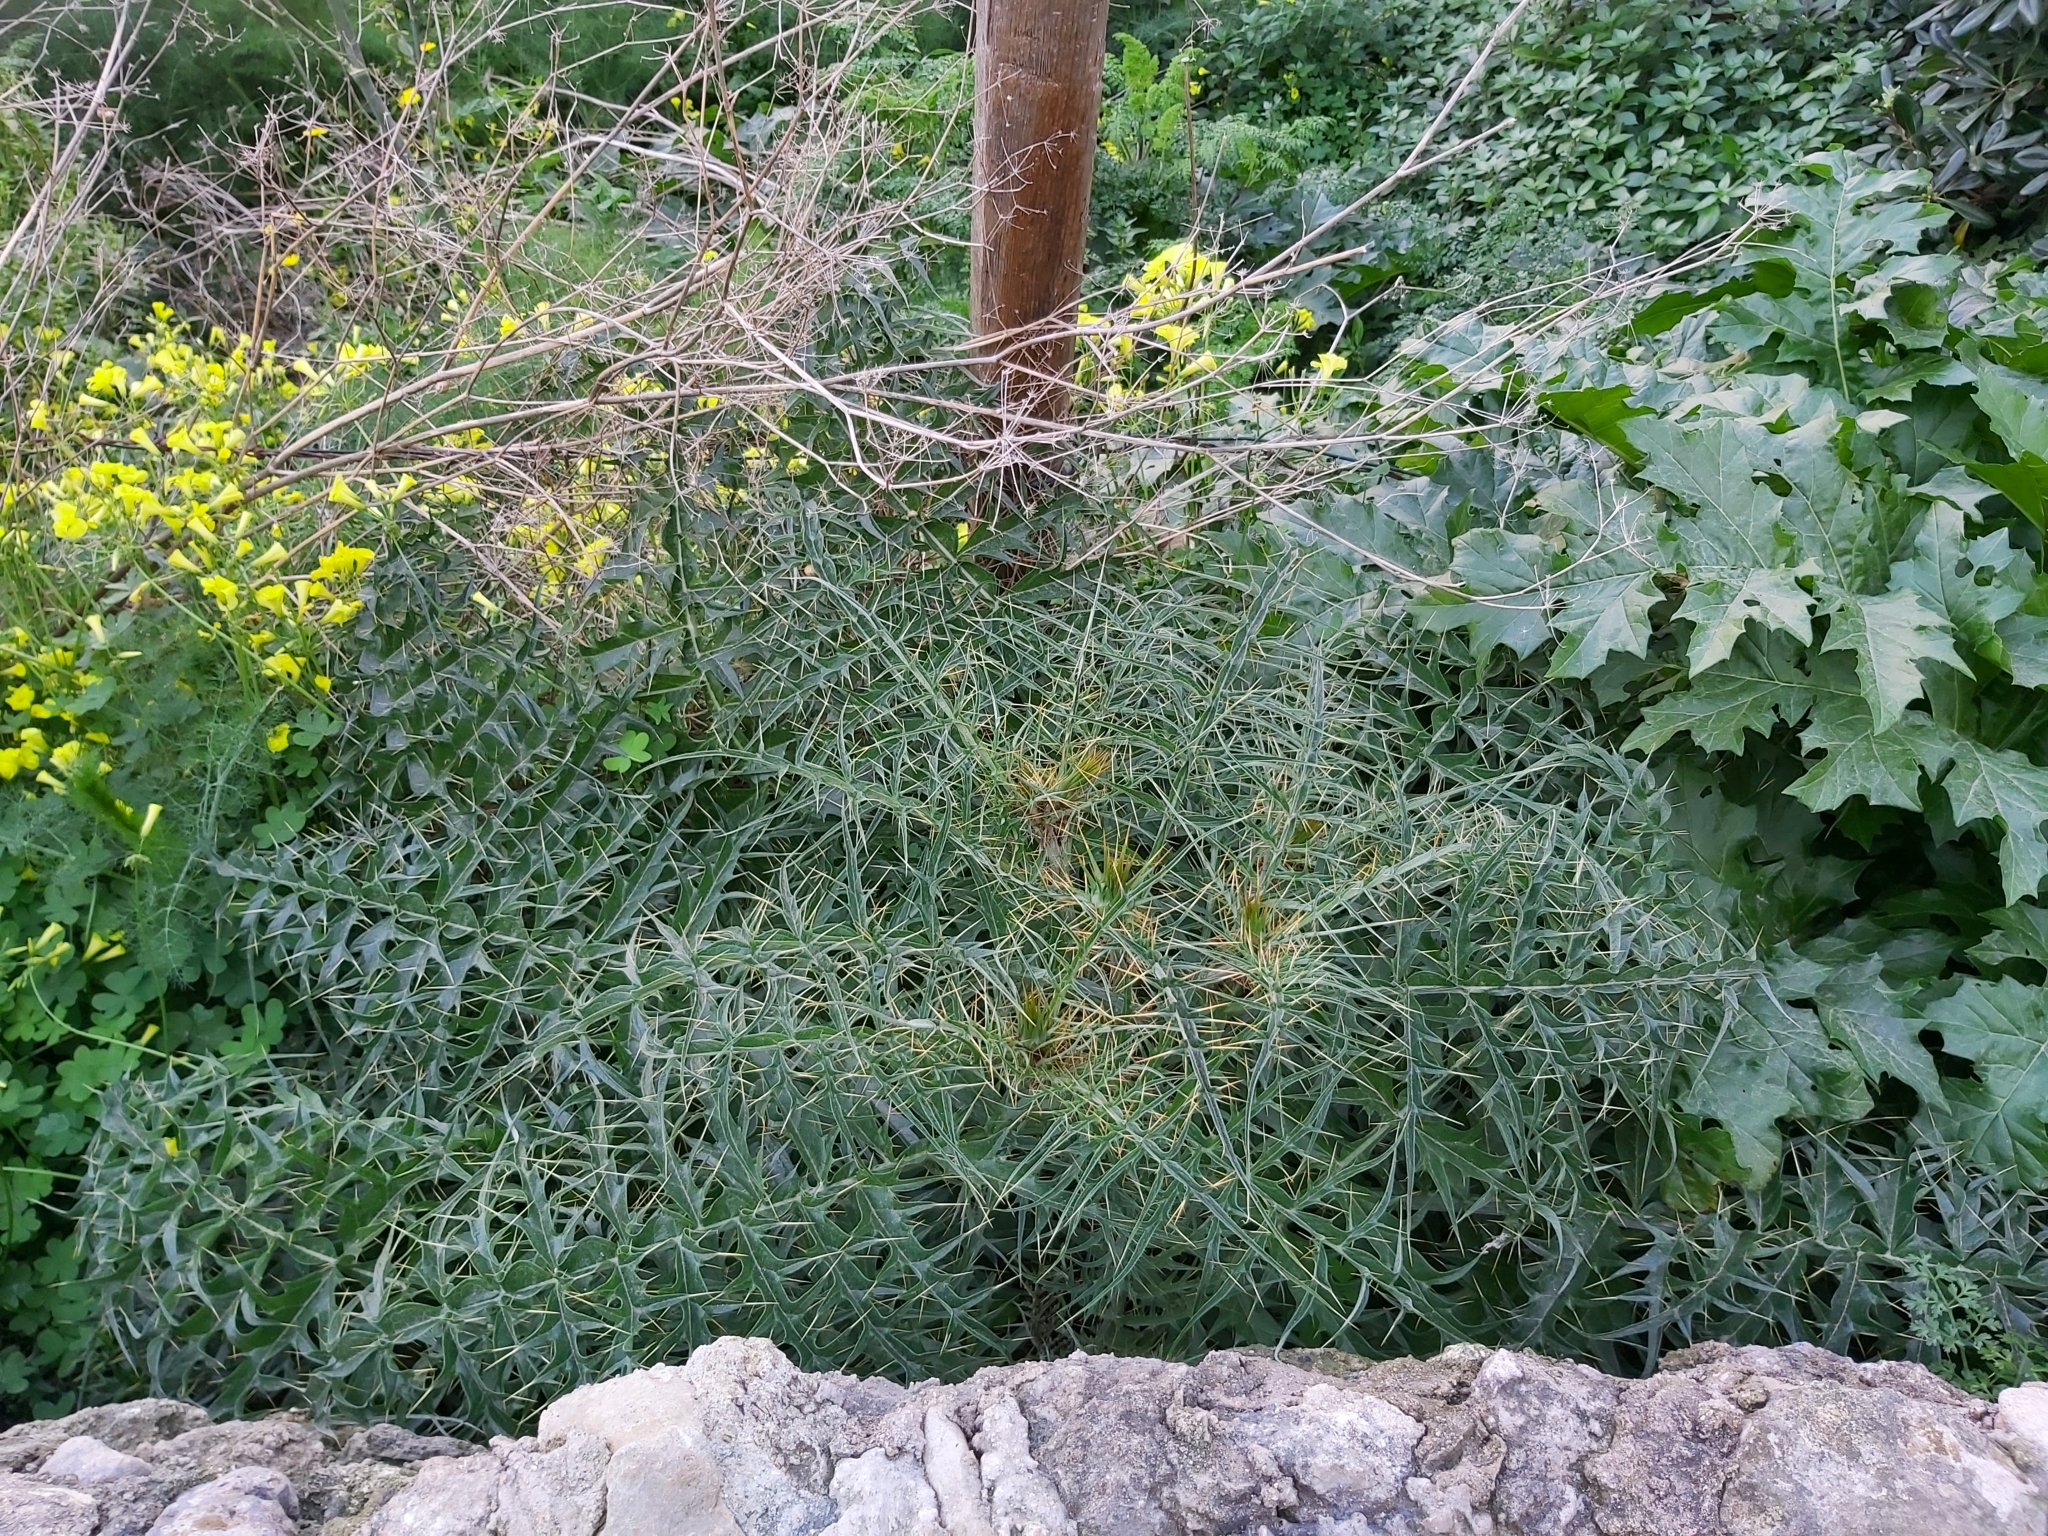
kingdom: Plantae
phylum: Tracheophyta
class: Magnoliopsida
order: Asterales
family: Asteraceae
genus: Cynara
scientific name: Cynara cardunculus
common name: Globe artichoke
